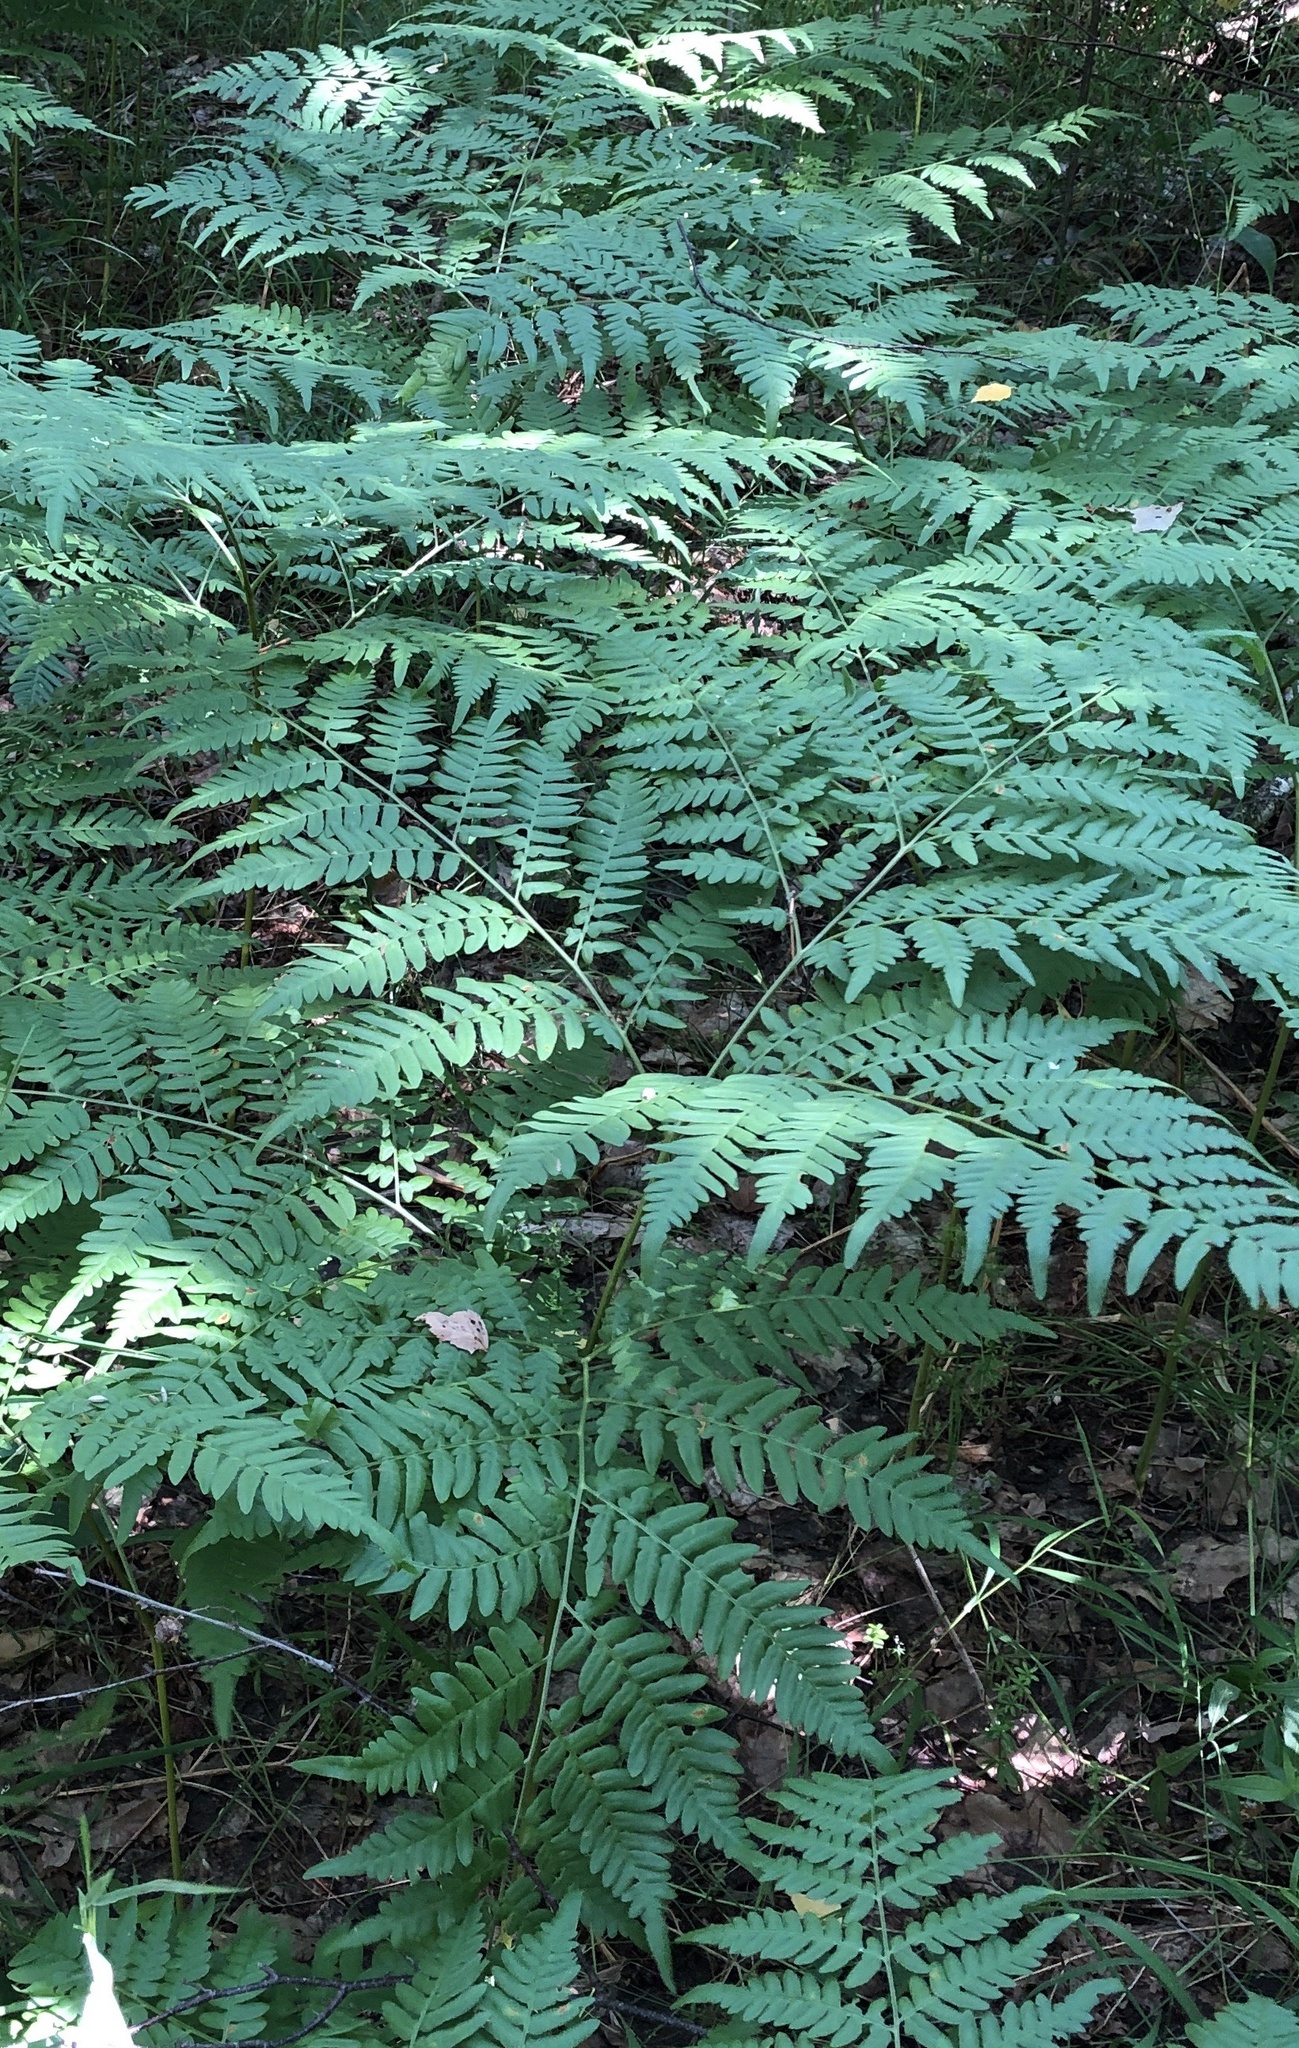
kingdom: Plantae
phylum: Tracheophyta
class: Polypodiopsida
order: Polypodiales
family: Dennstaedtiaceae
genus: Pteridium
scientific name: Pteridium aquilinum
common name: Bracken
